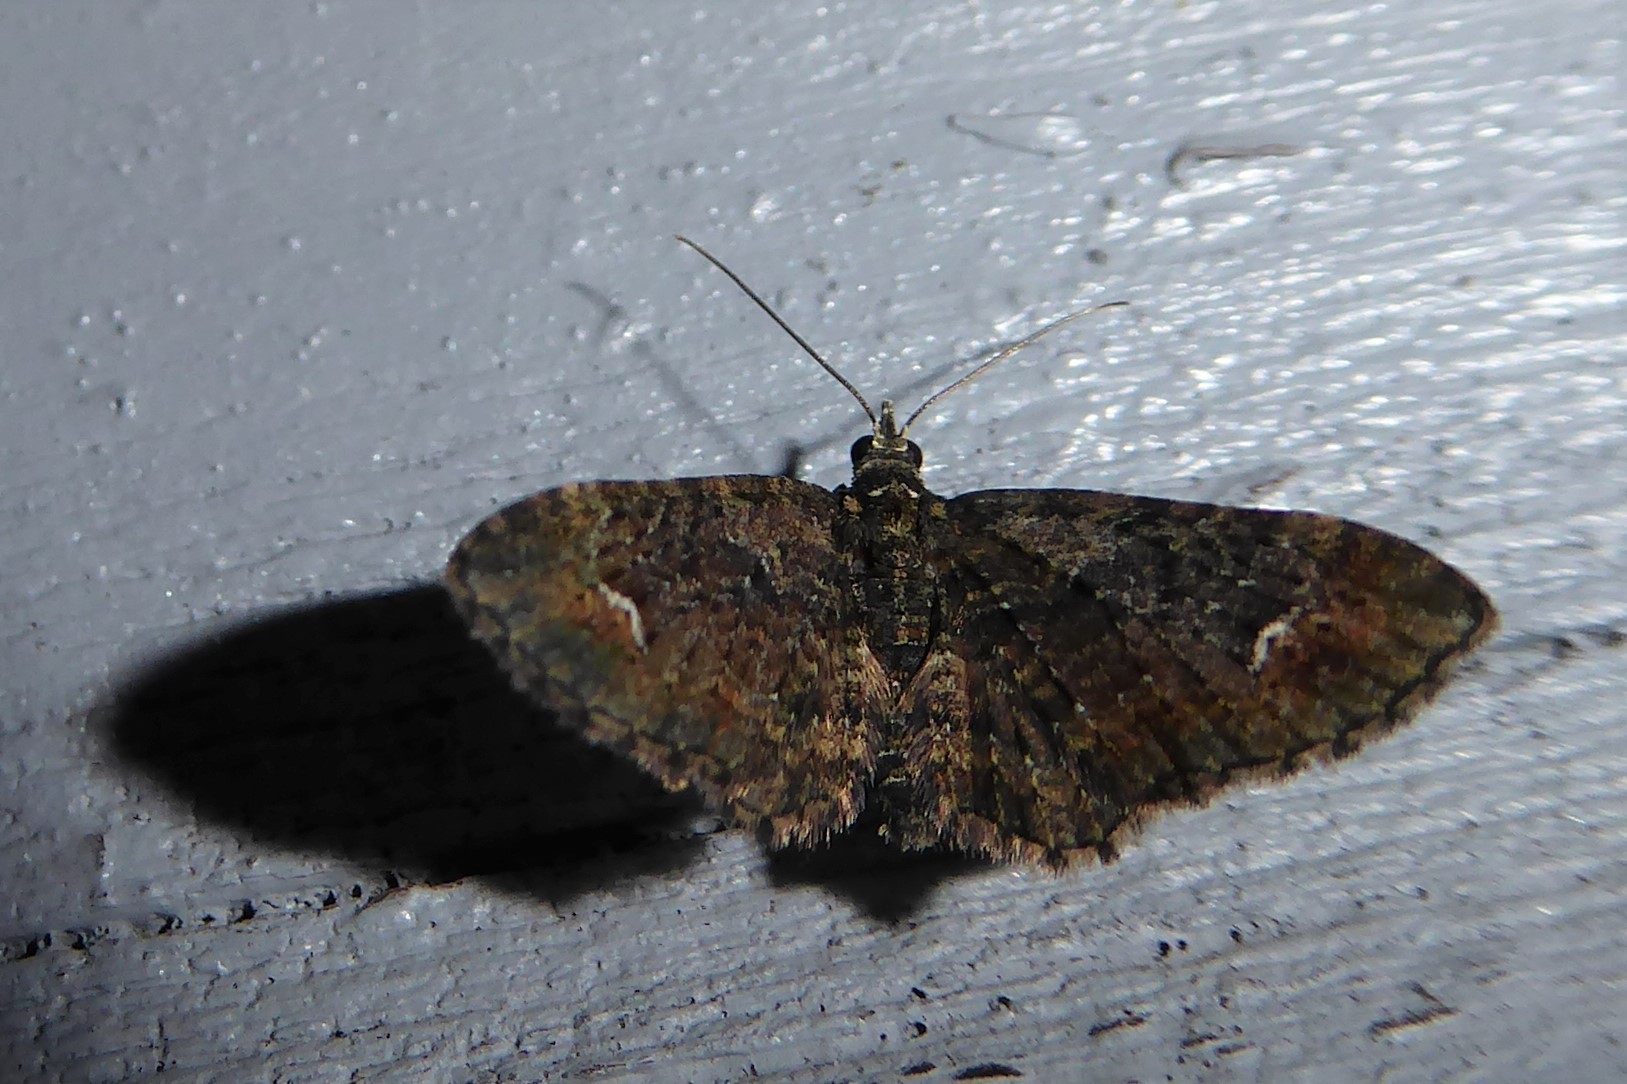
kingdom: Animalia
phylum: Arthropoda
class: Insecta
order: Lepidoptera
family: Geometridae
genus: Pasiphilodes
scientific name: Pasiphilodes testulata
